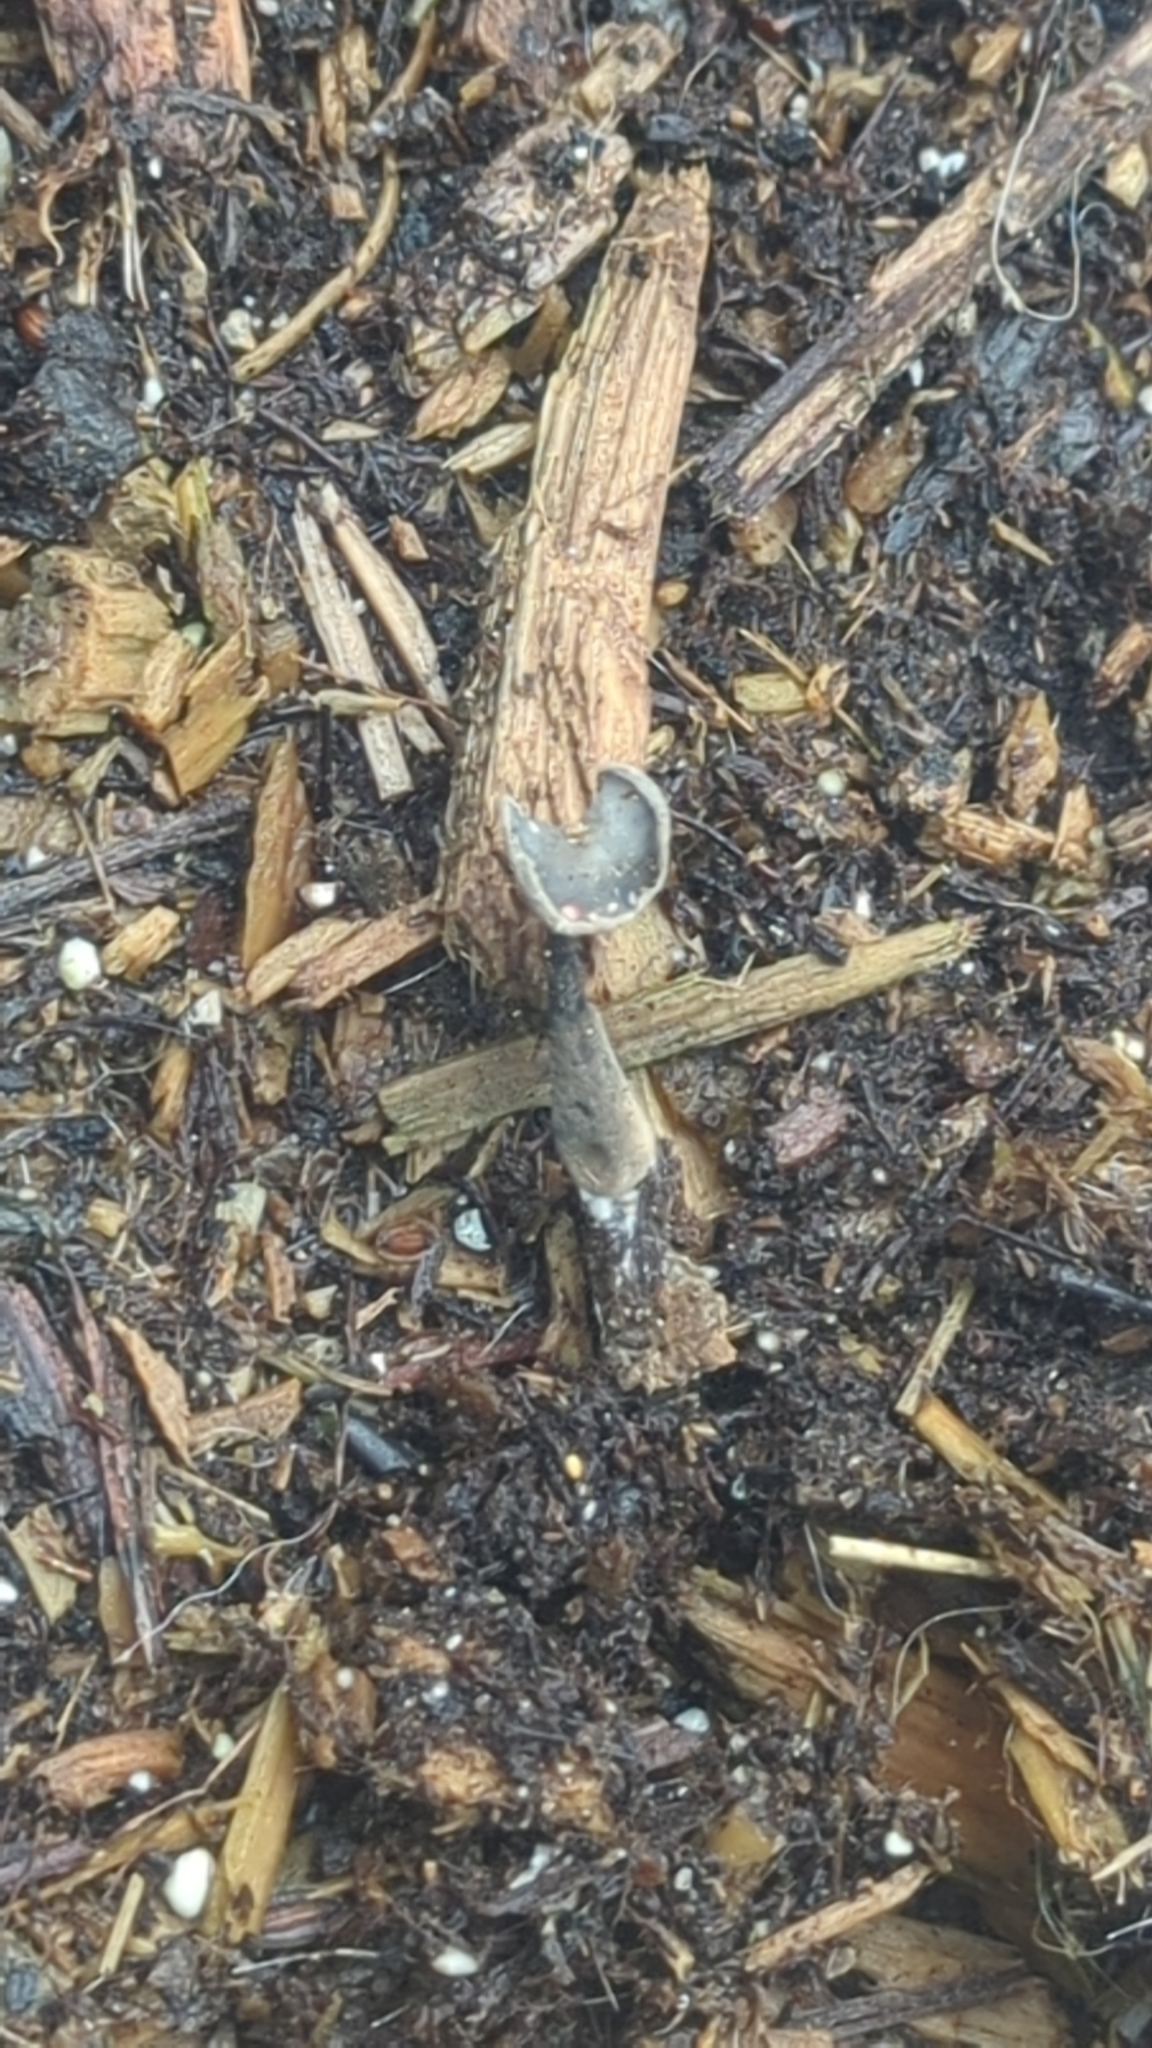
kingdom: Fungi
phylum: Ascomycota
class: Pezizomycetes
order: Pezizales
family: Helvellaceae
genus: Helvella
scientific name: Helvella atra
